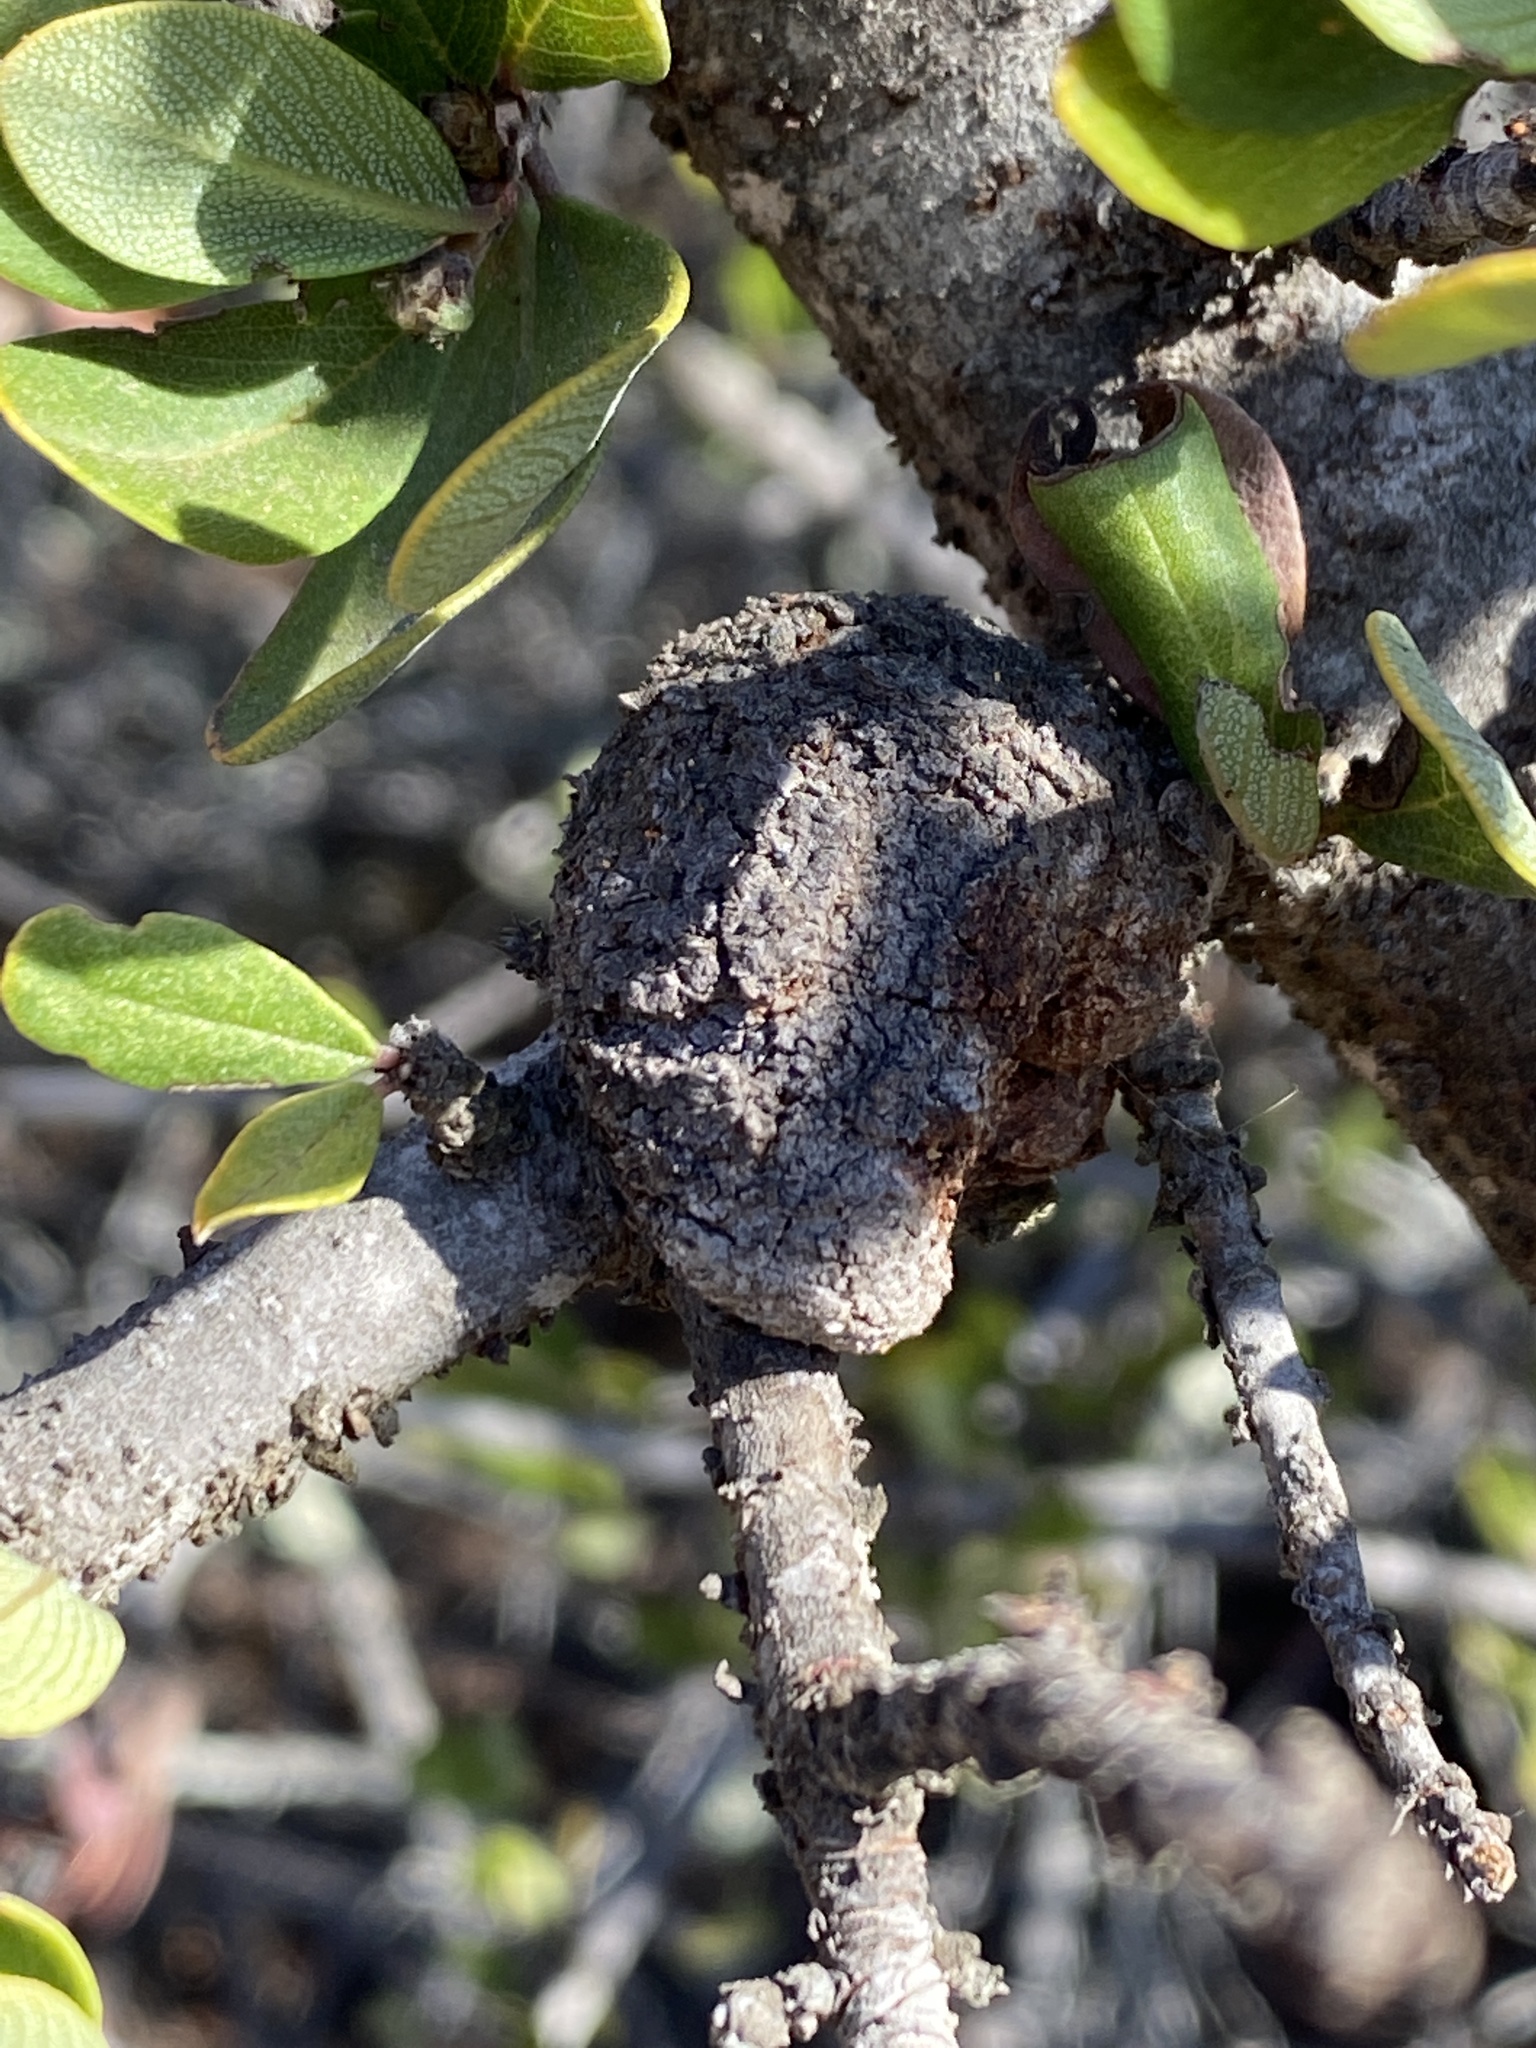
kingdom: Bacteria
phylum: Proteobacteria
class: Alphaproteobacteria
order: Rhizobiales
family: Rhizobiaceae
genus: Rhizobium
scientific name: Rhizobium Agrobacterium radiobacter
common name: Bacterial crown gall
